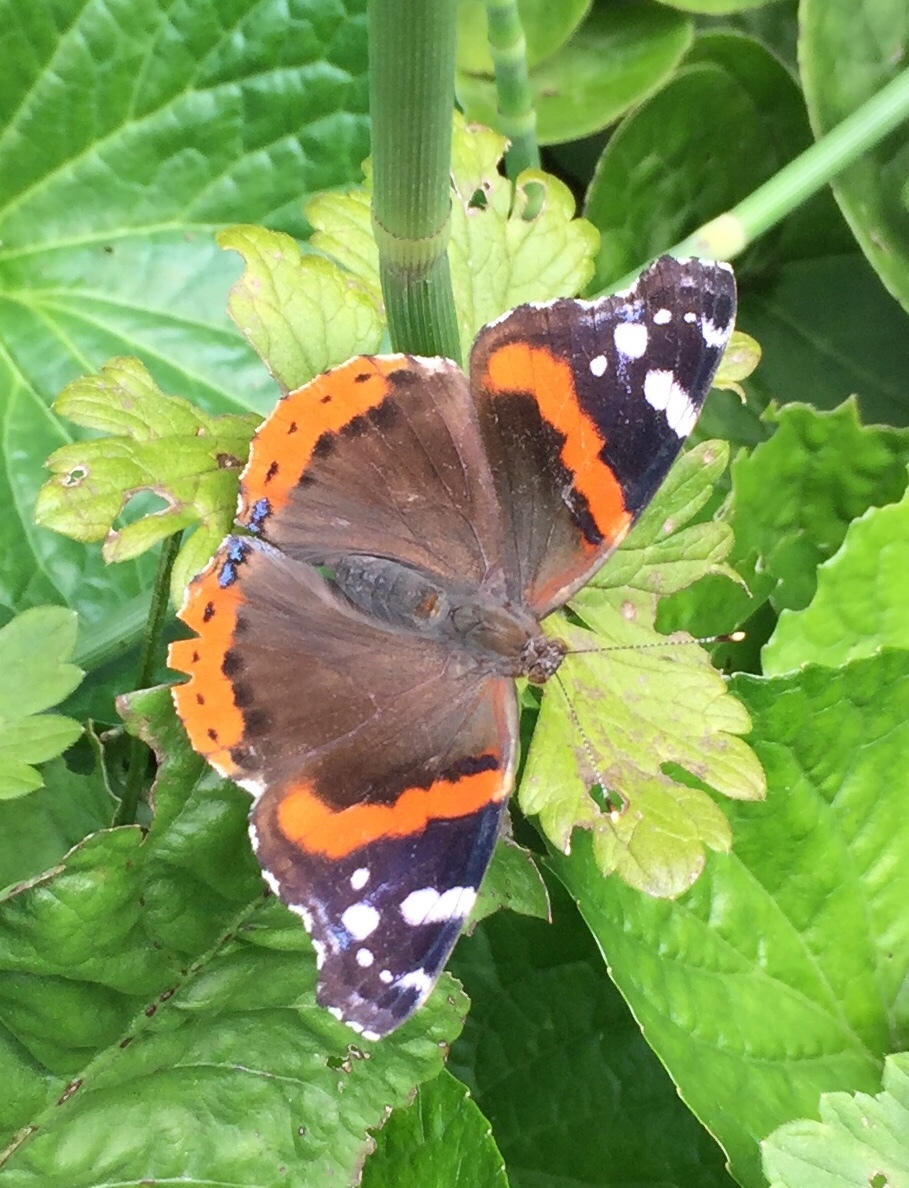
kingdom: Animalia
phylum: Arthropoda
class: Insecta
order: Lepidoptera
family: Nymphalidae
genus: Vanessa
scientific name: Vanessa atalanta
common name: Red admiral
